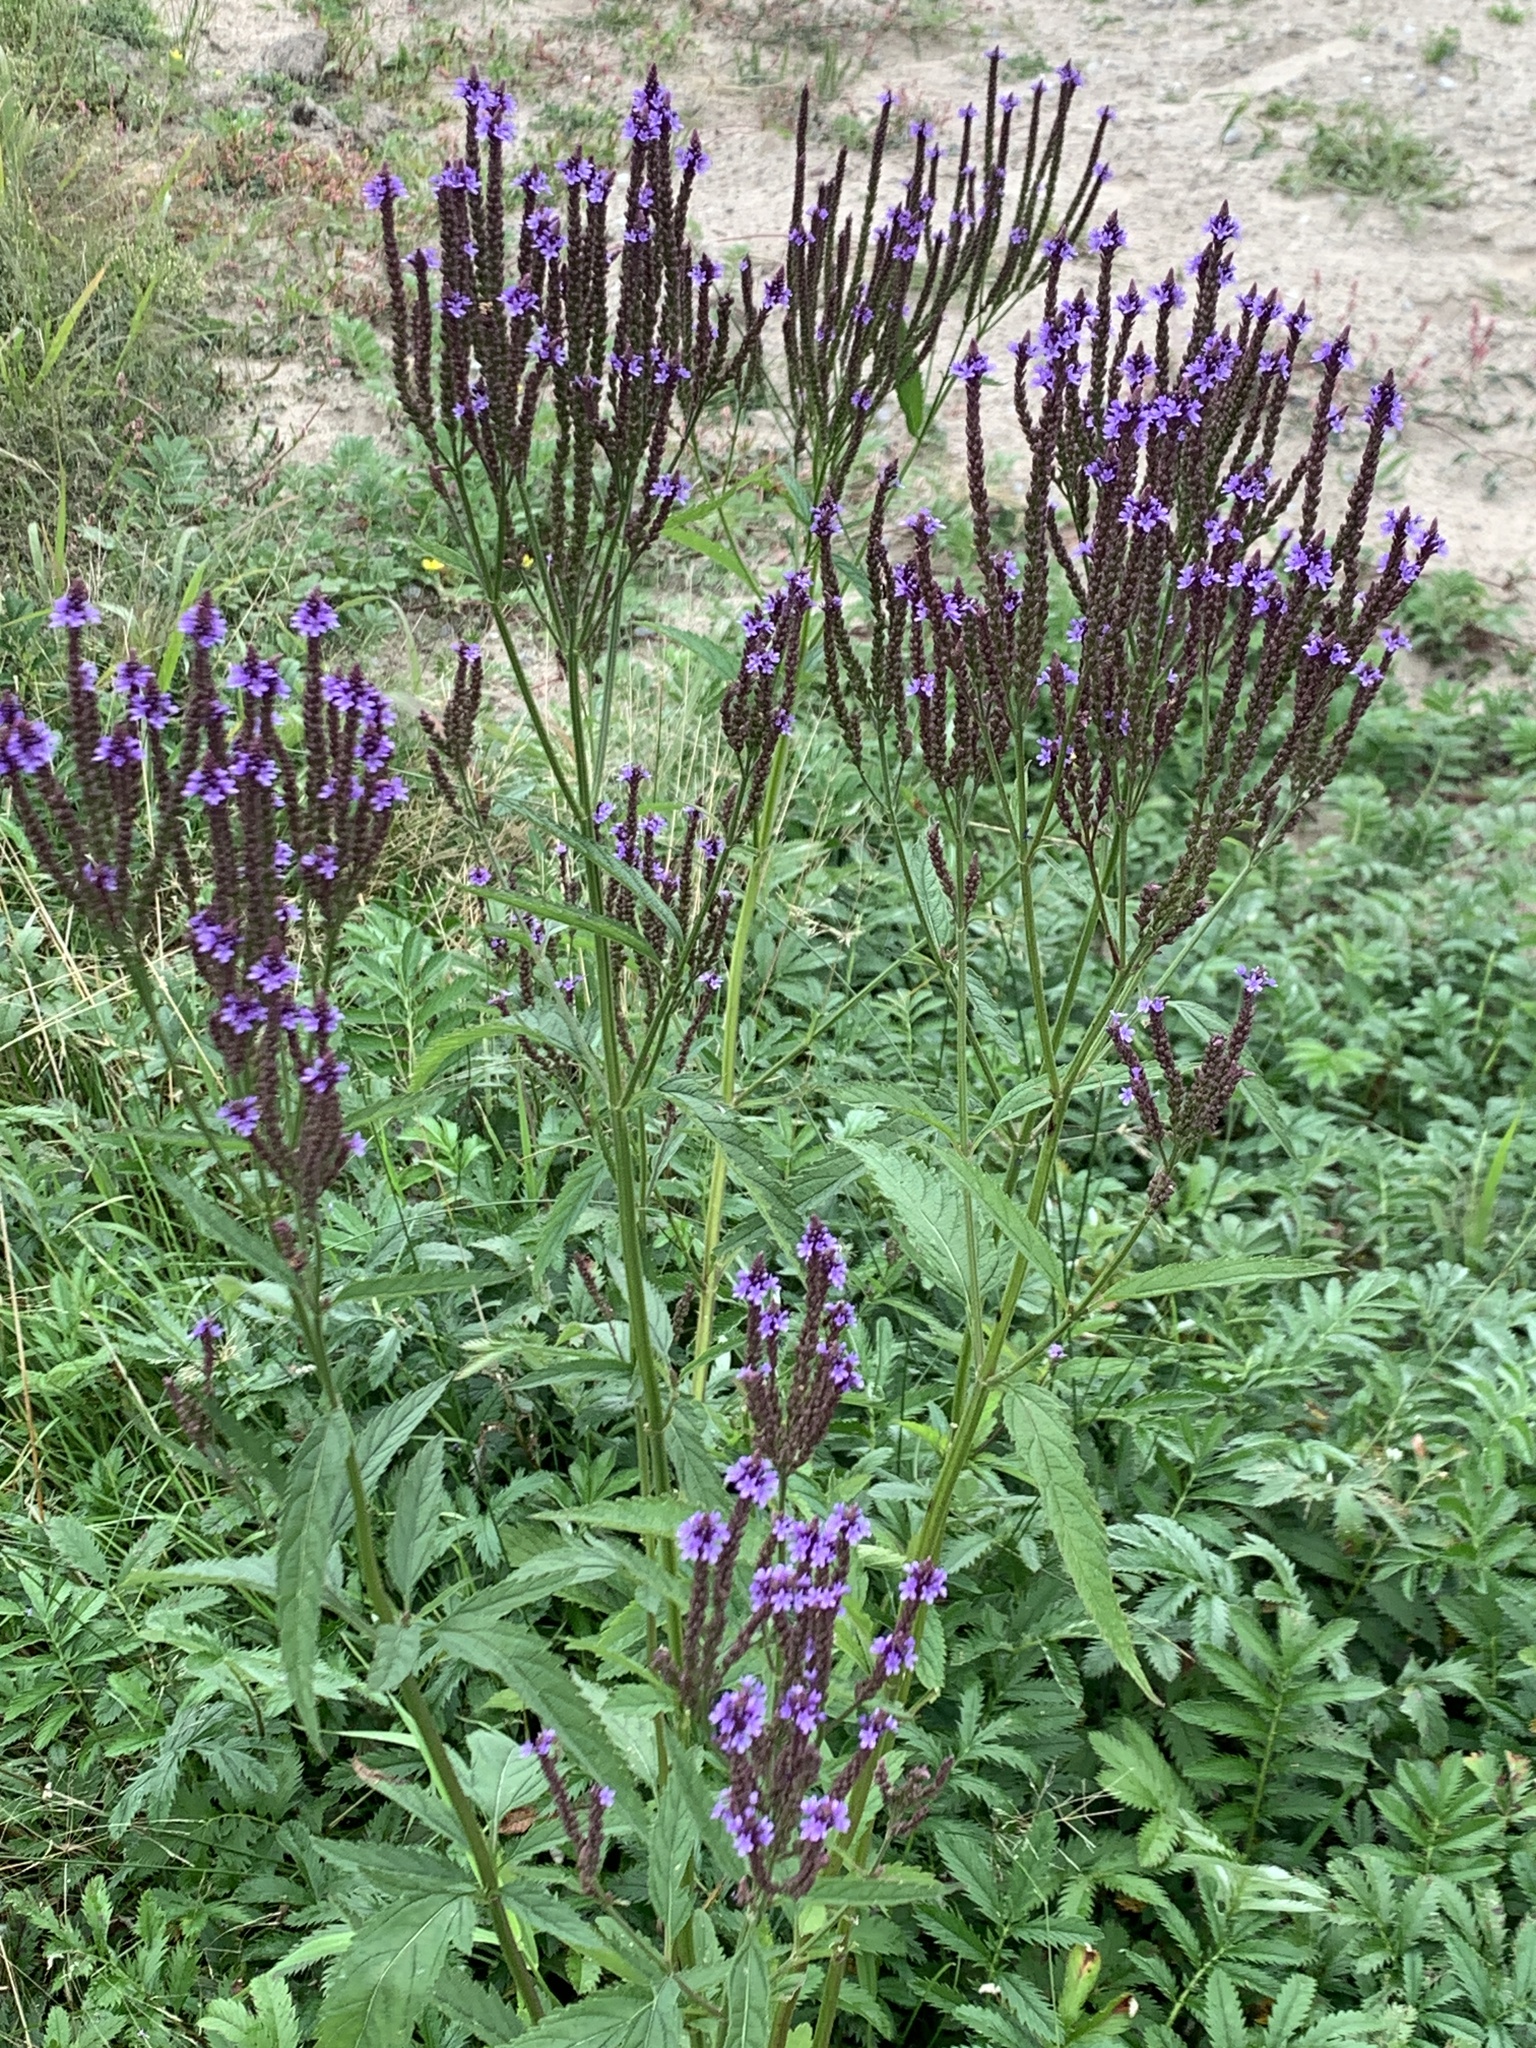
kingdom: Plantae
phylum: Tracheophyta
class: Magnoliopsida
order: Lamiales
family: Verbenaceae
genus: Verbena
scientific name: Verbena hastata
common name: American blue vervain
